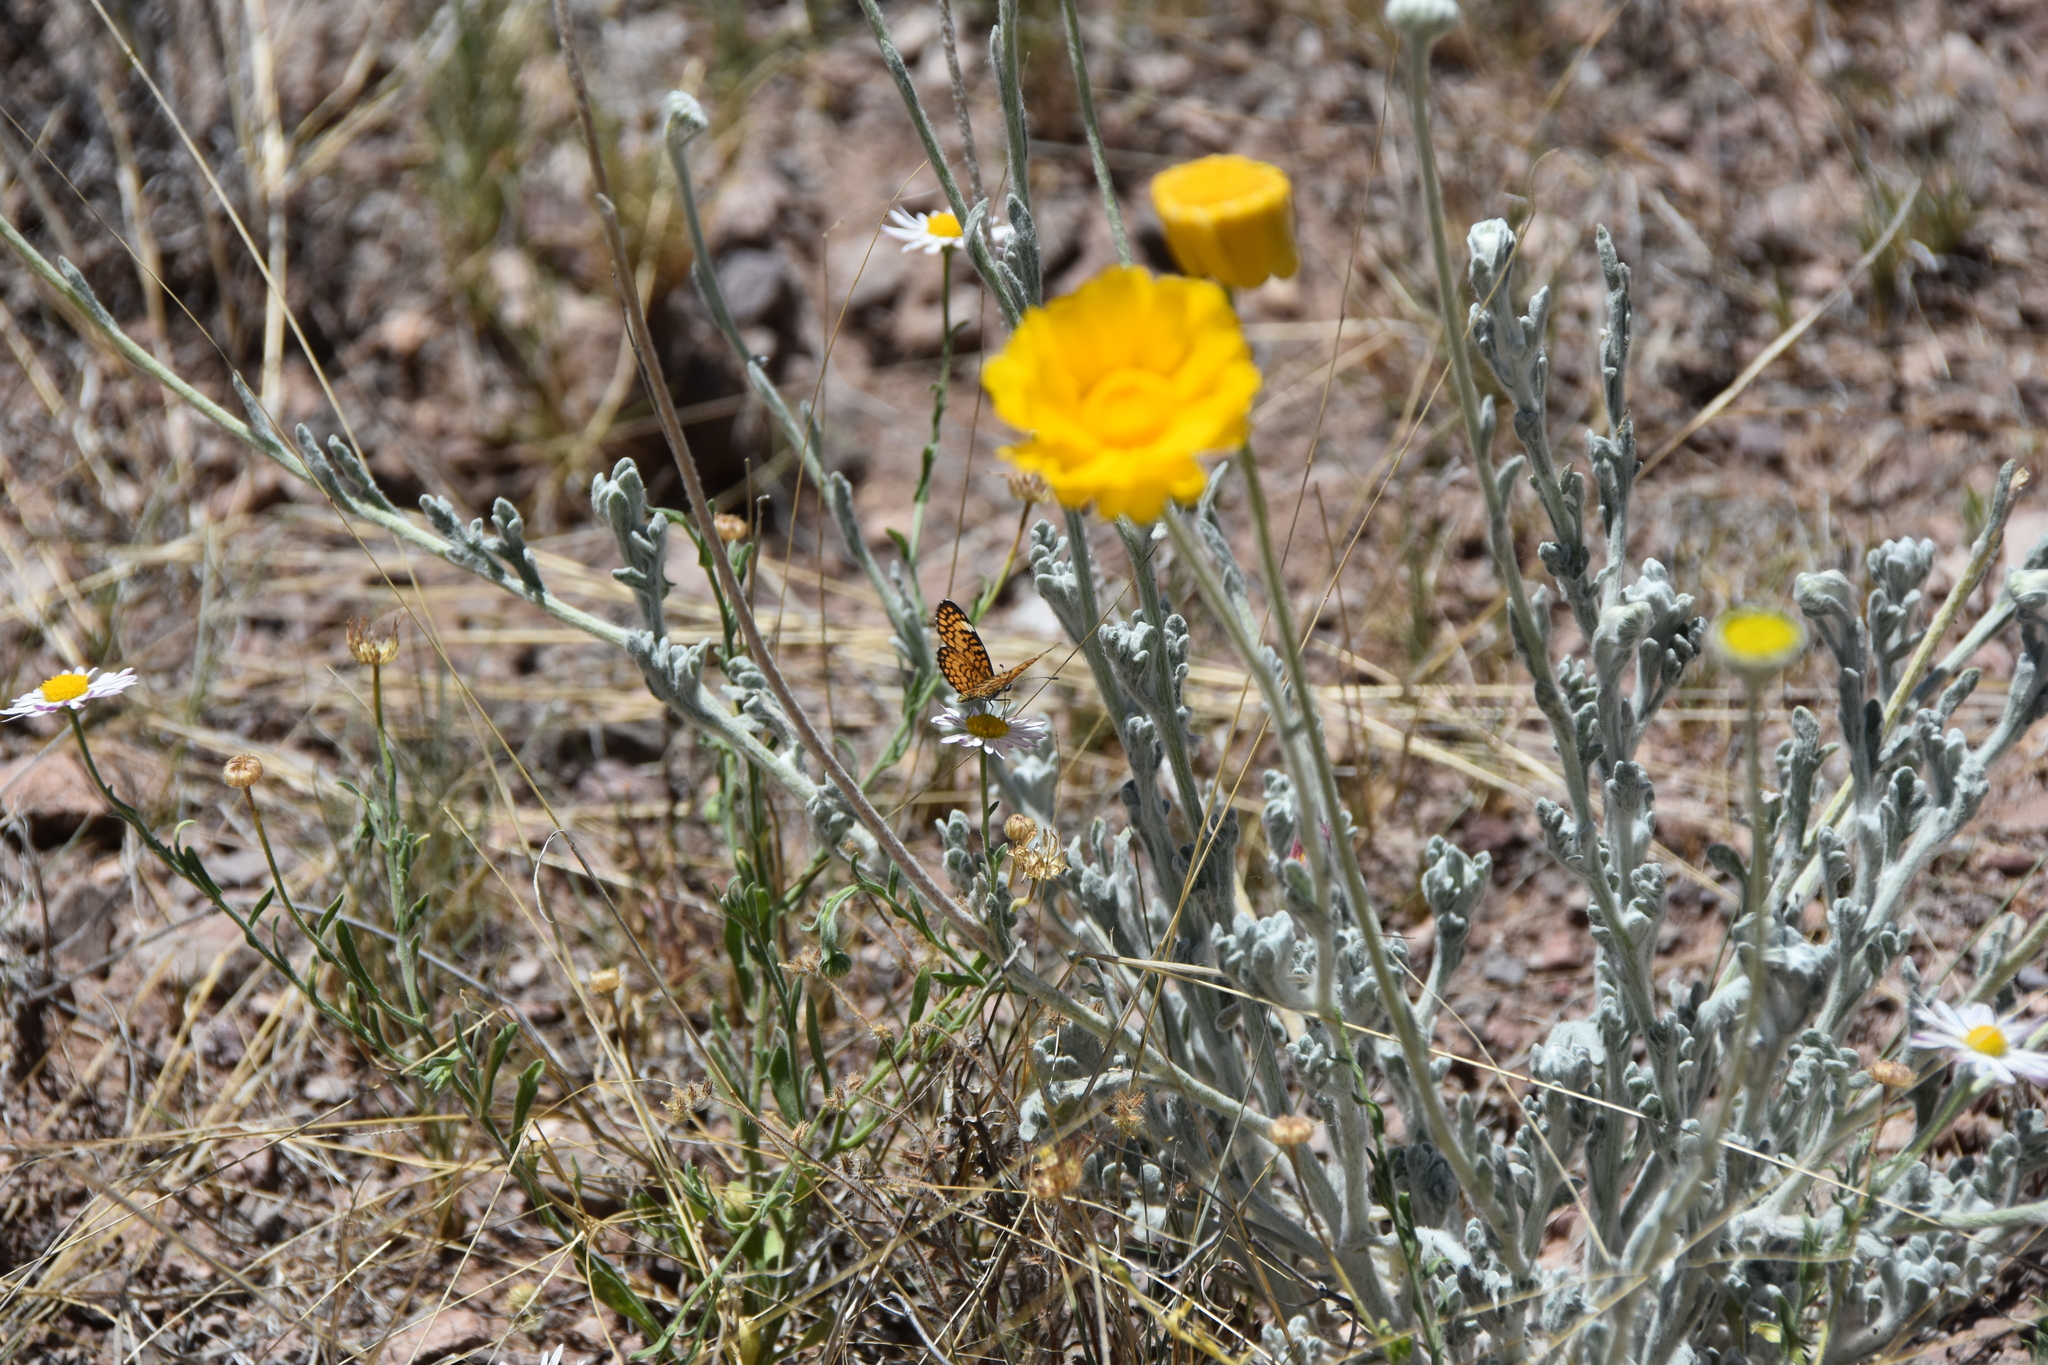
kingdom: Animalia
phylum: Arthropoda
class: Insecta
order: Lepidoptera
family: Nymphalidae
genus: Dymasia
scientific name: Dymasia dymas
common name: Tiny checkerspot
